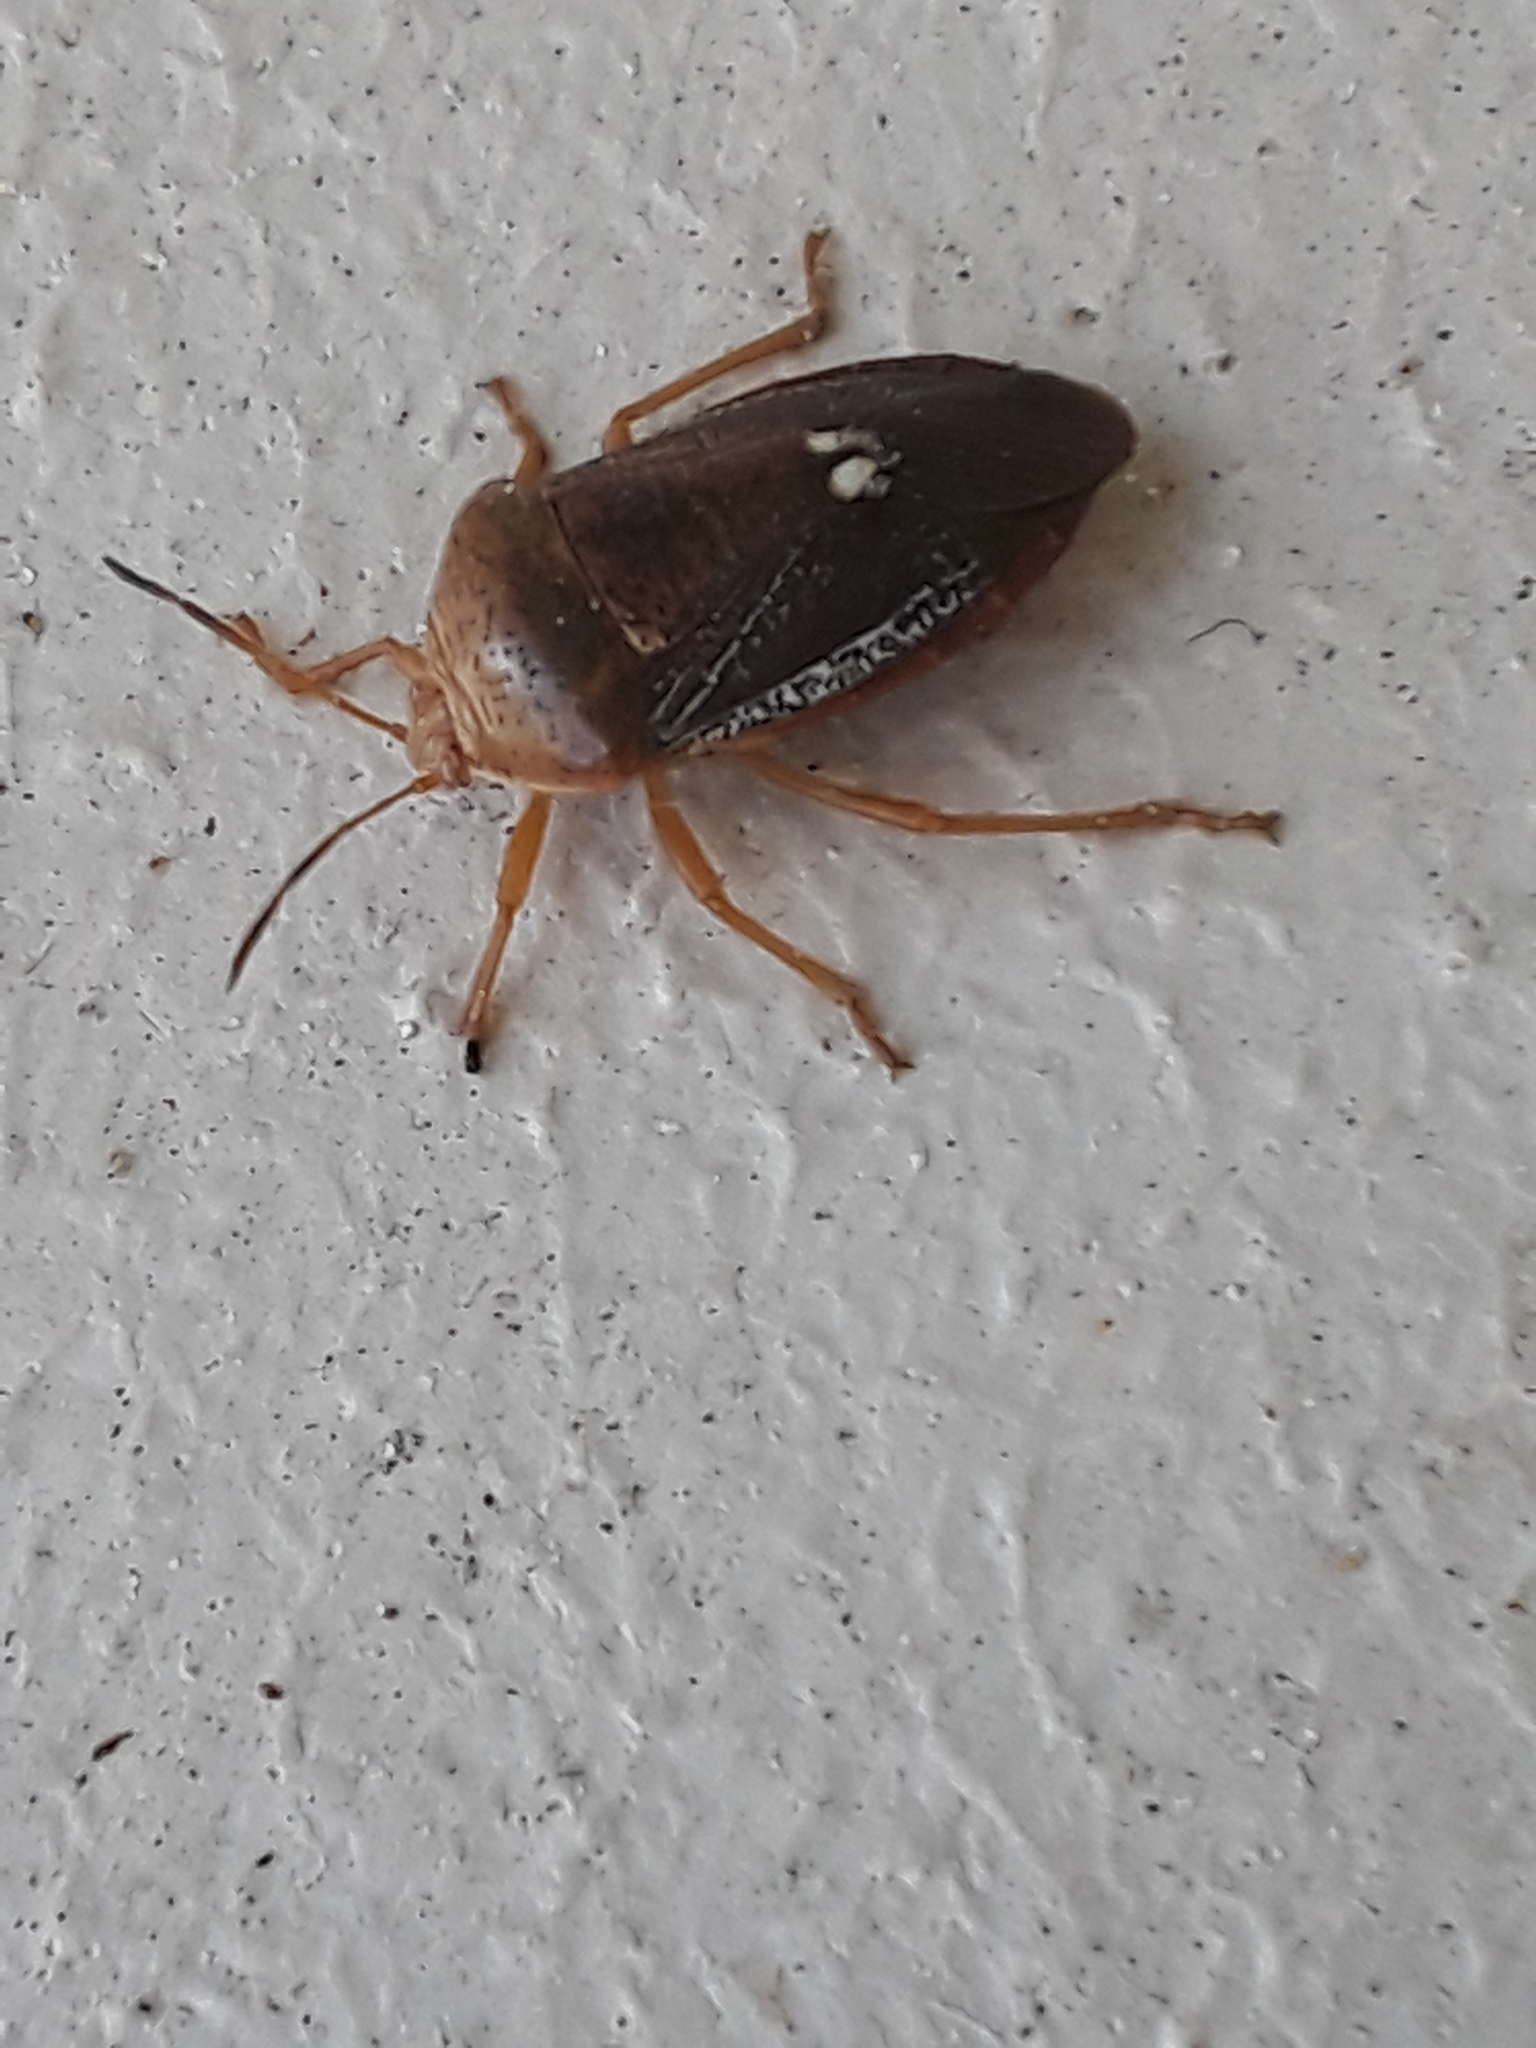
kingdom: Animalia
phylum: Arthropoda
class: Insecta
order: Hemiptera
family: Pentatomidae
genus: Edessa
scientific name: Edessa bifida
